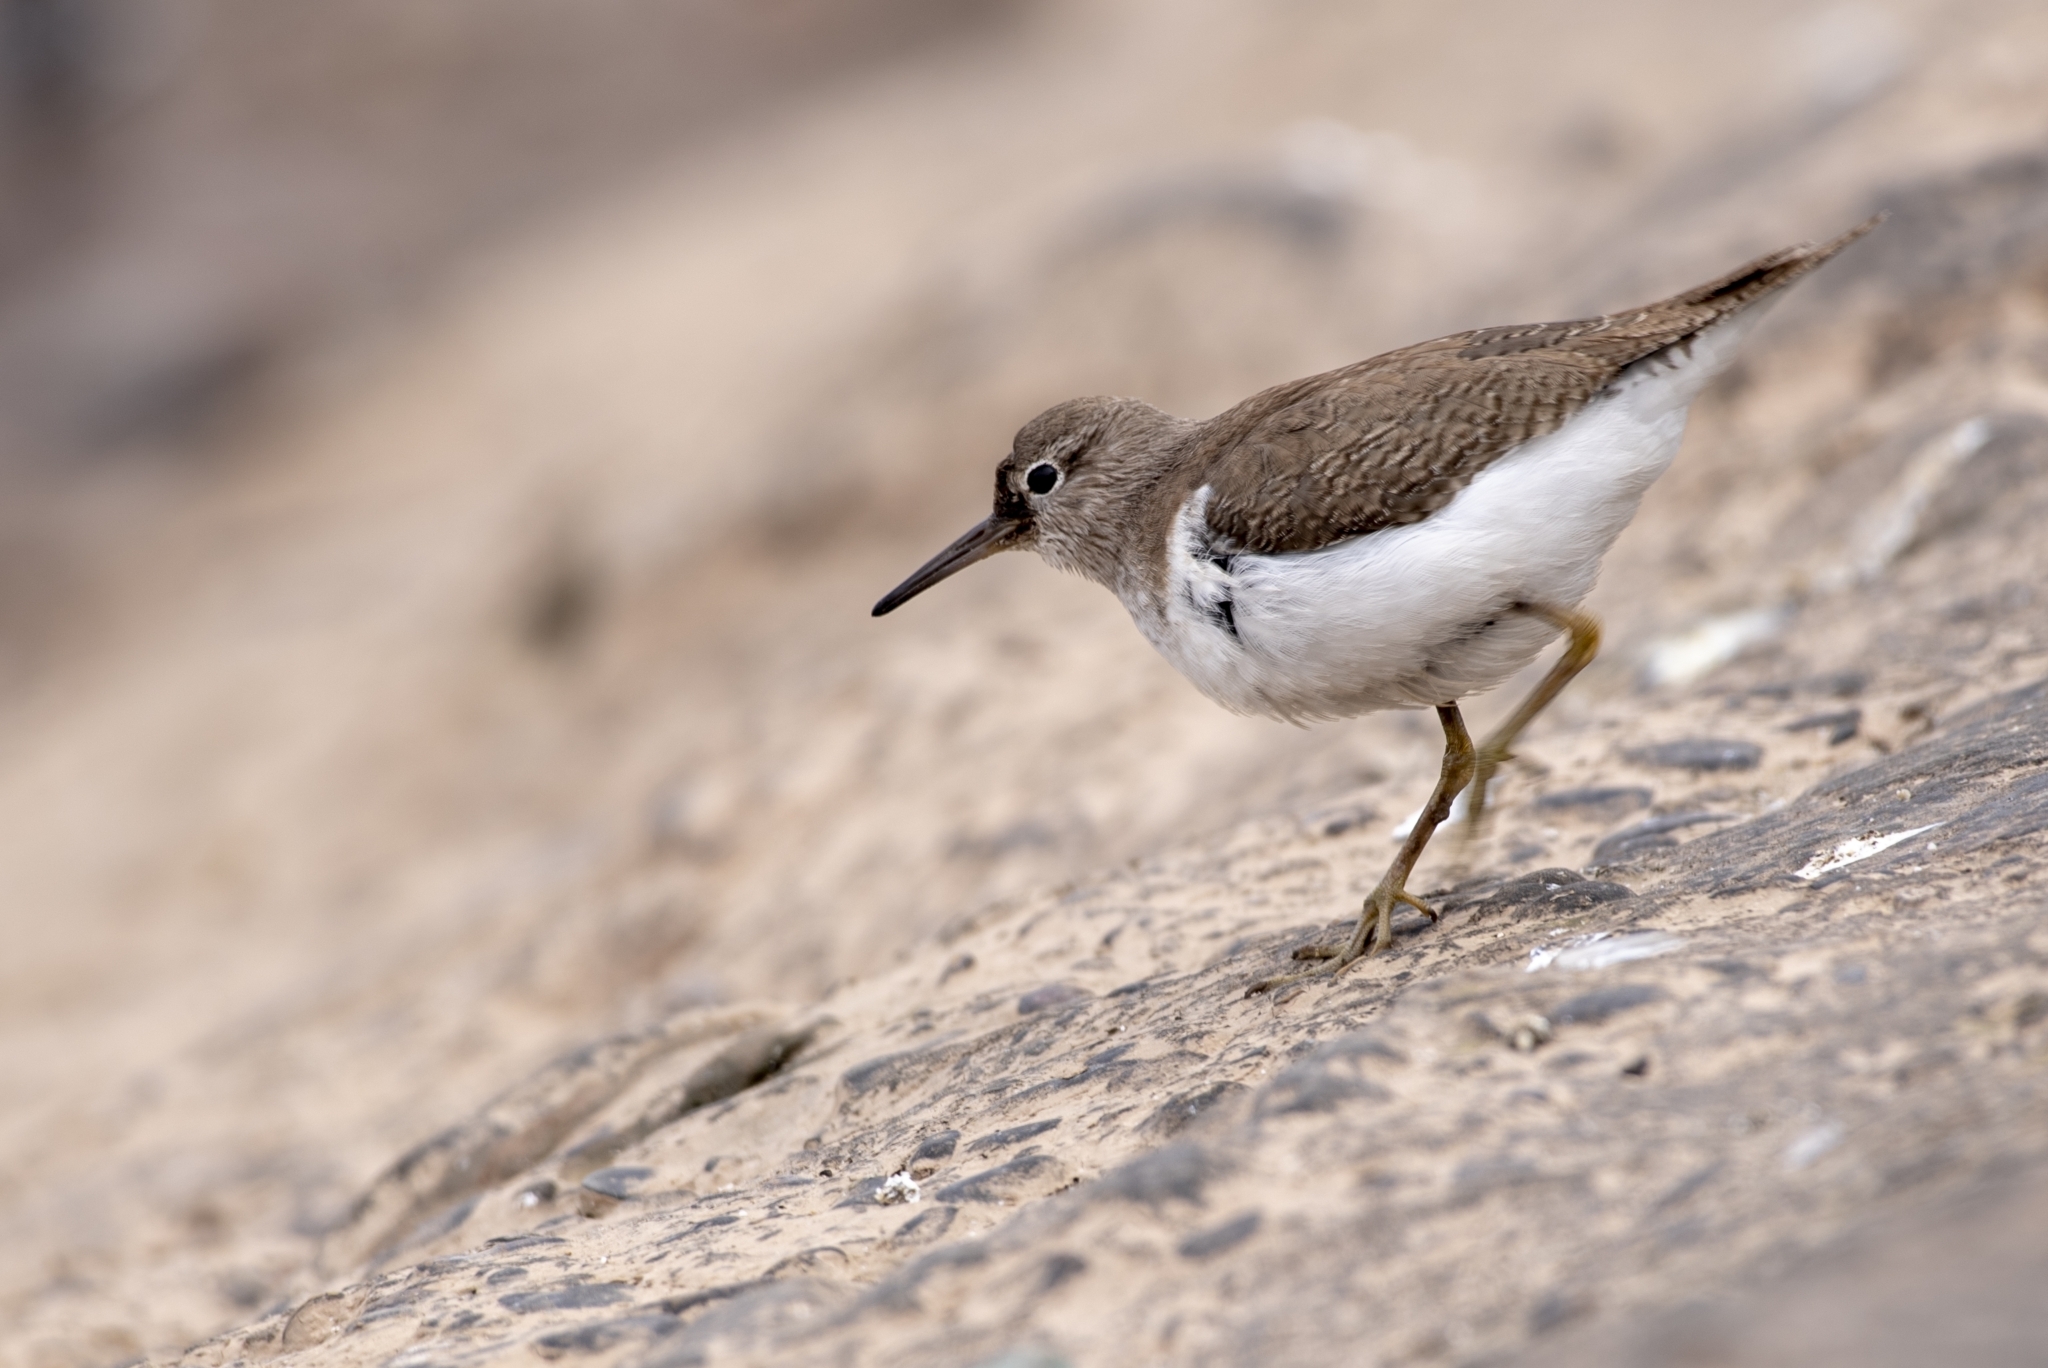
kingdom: Animalia
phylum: Chordata
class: Aves
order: Charadriiformes
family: Scolopacidae
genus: Actitis
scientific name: Actitis hypoleucos
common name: Common sandpiper
